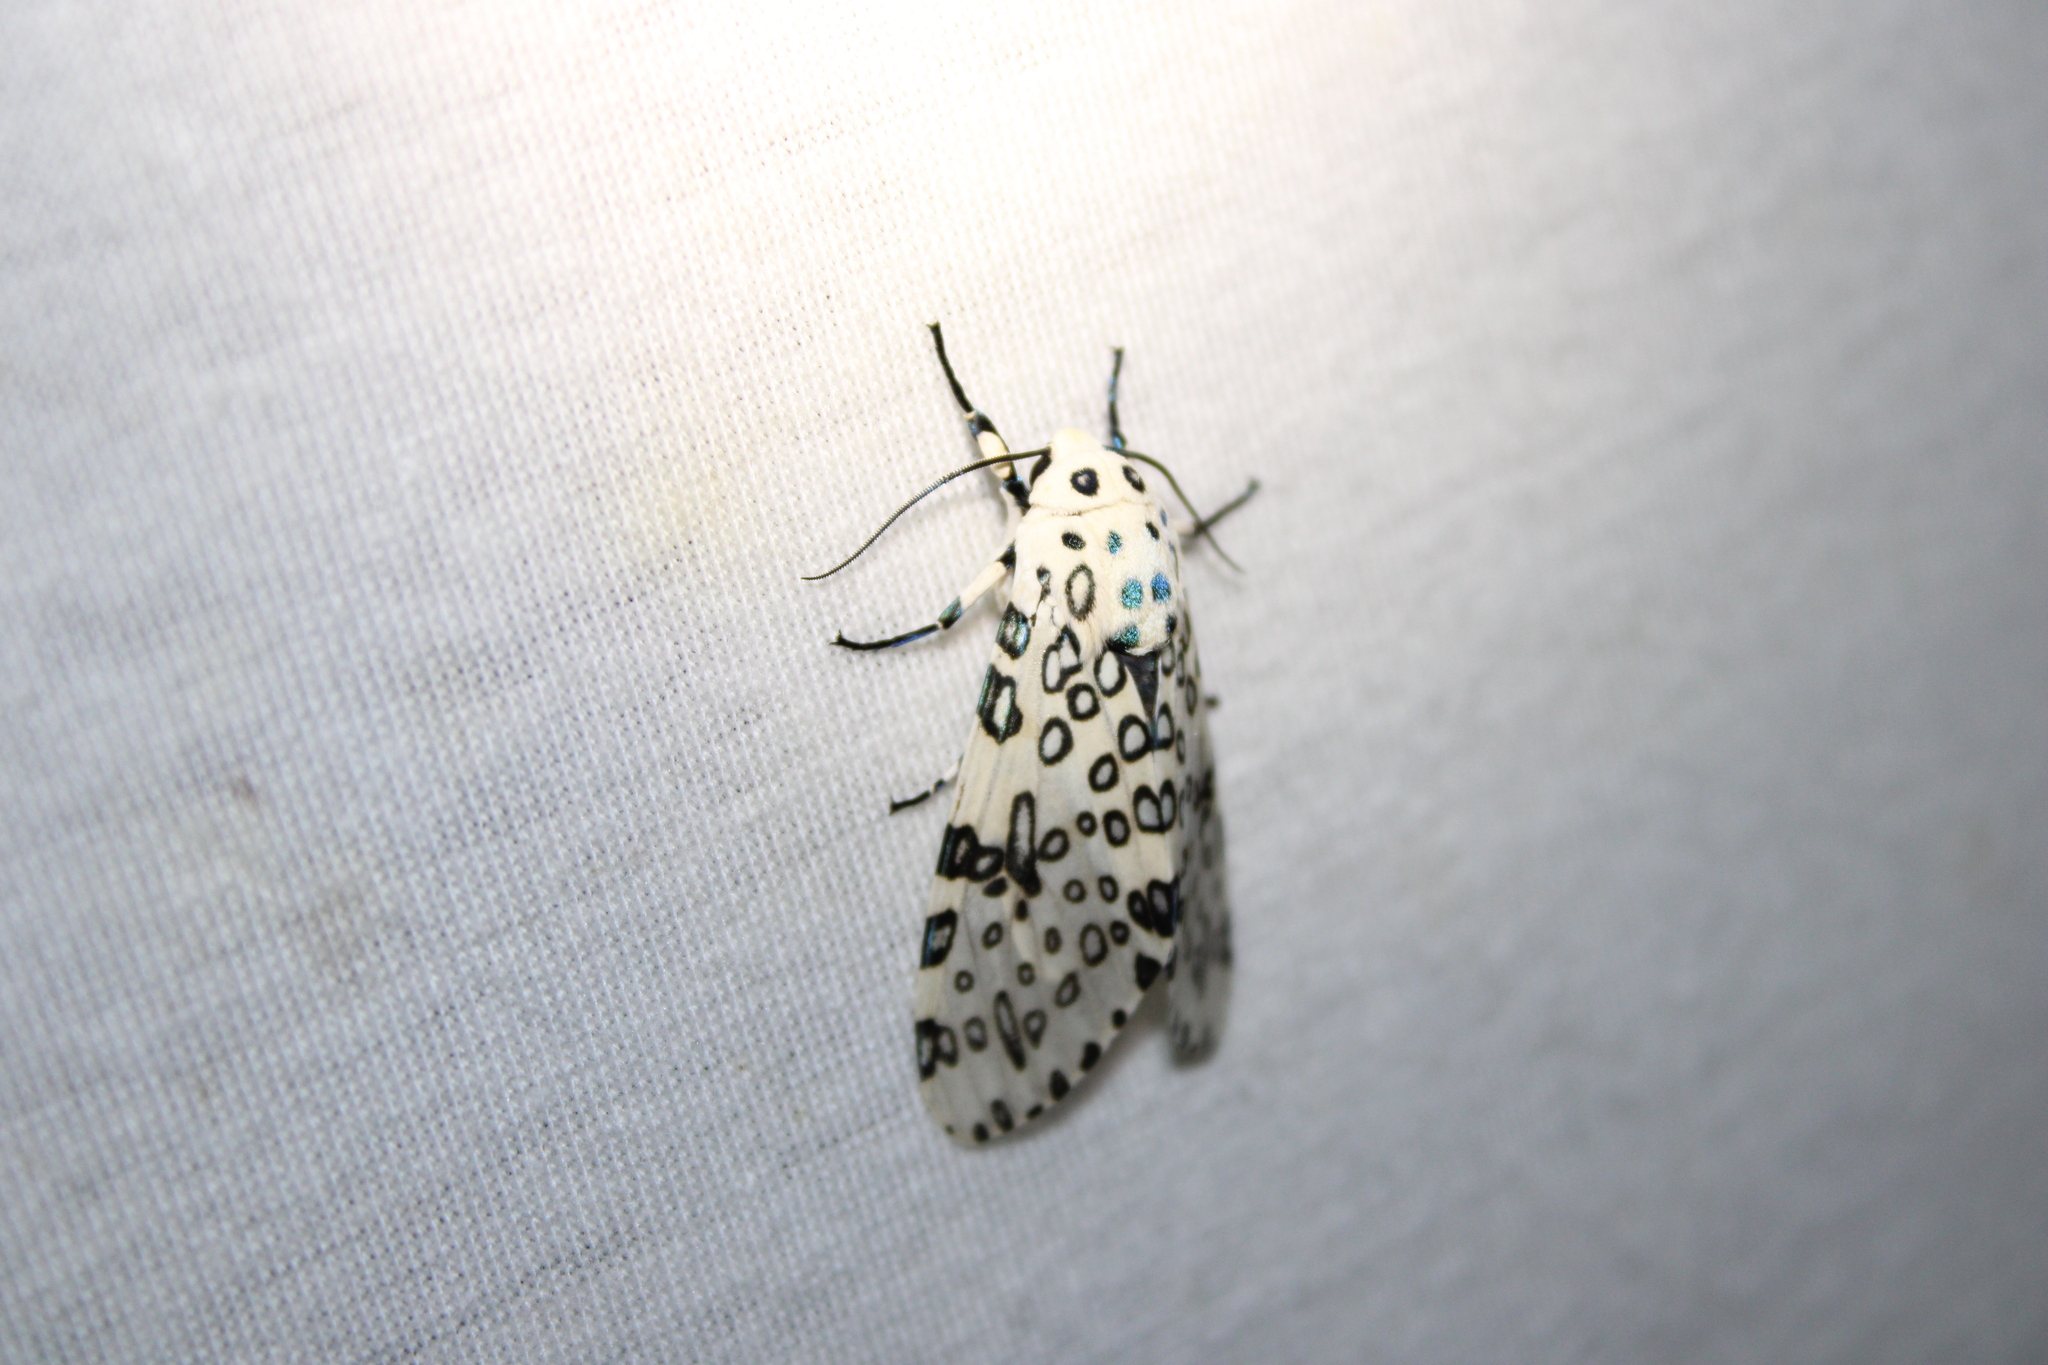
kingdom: Animalia
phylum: Arthropoda
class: Insecta
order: Lepidoptera
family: Erebidae
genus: Hypercompe
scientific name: Hypercompe scribonia
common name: Giant leopard moth
